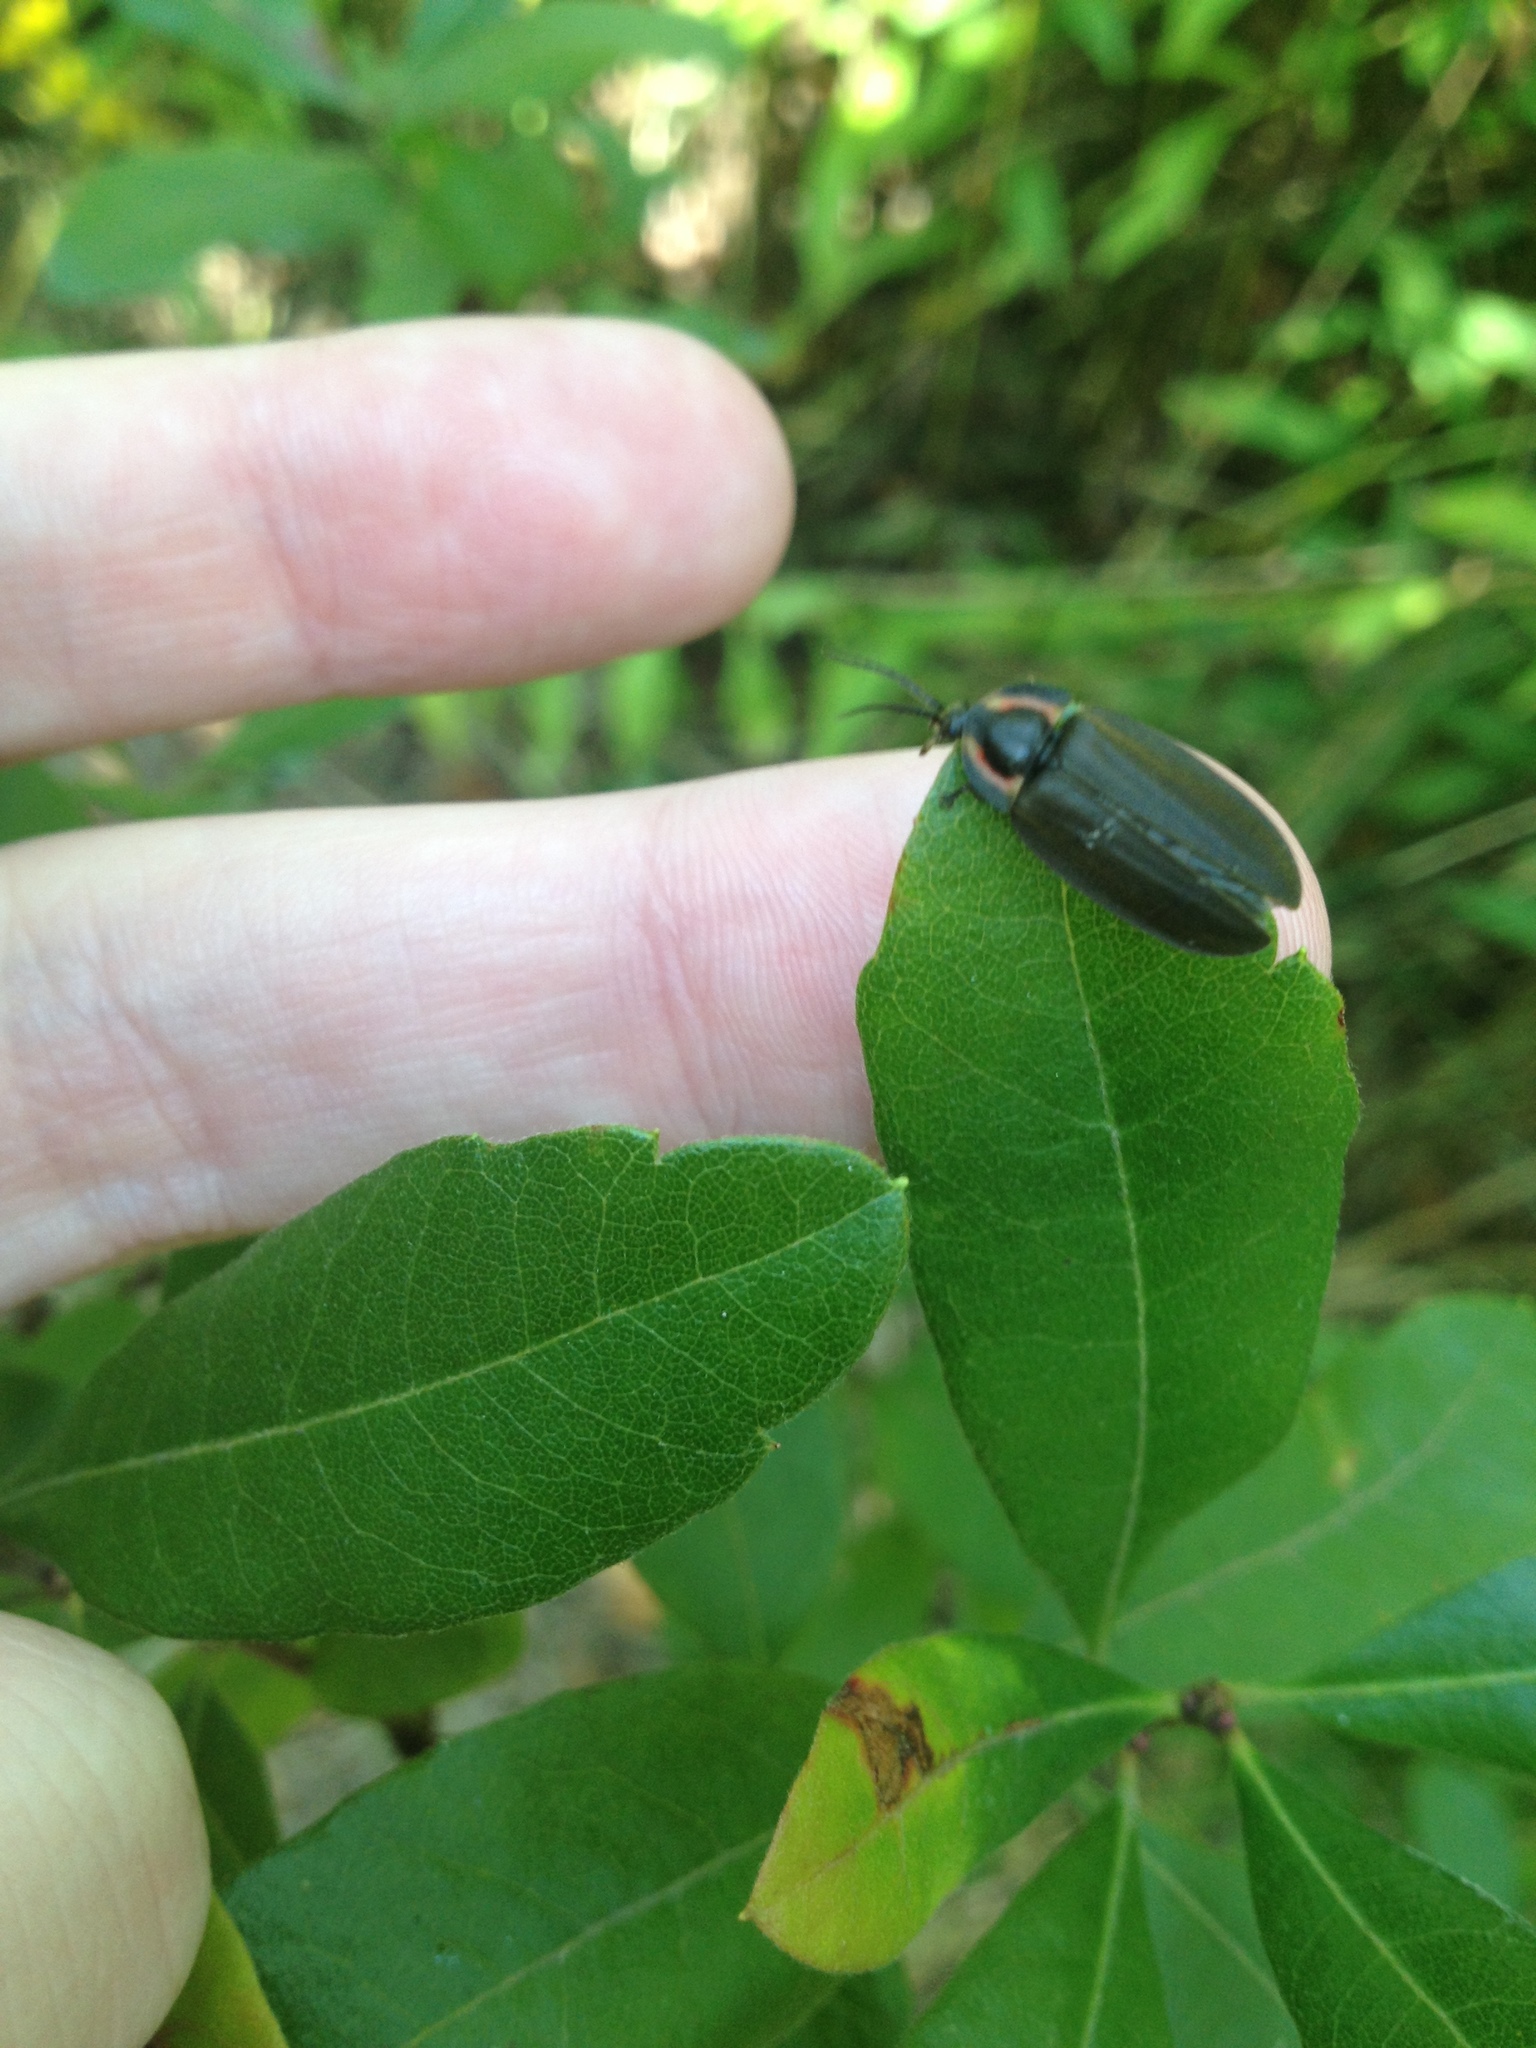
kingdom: Animalia
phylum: Arthropoda
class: Insecta
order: Coleoptera
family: Lampyridae
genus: Photinus
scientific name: Photinus corrusca
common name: Winter firefly
